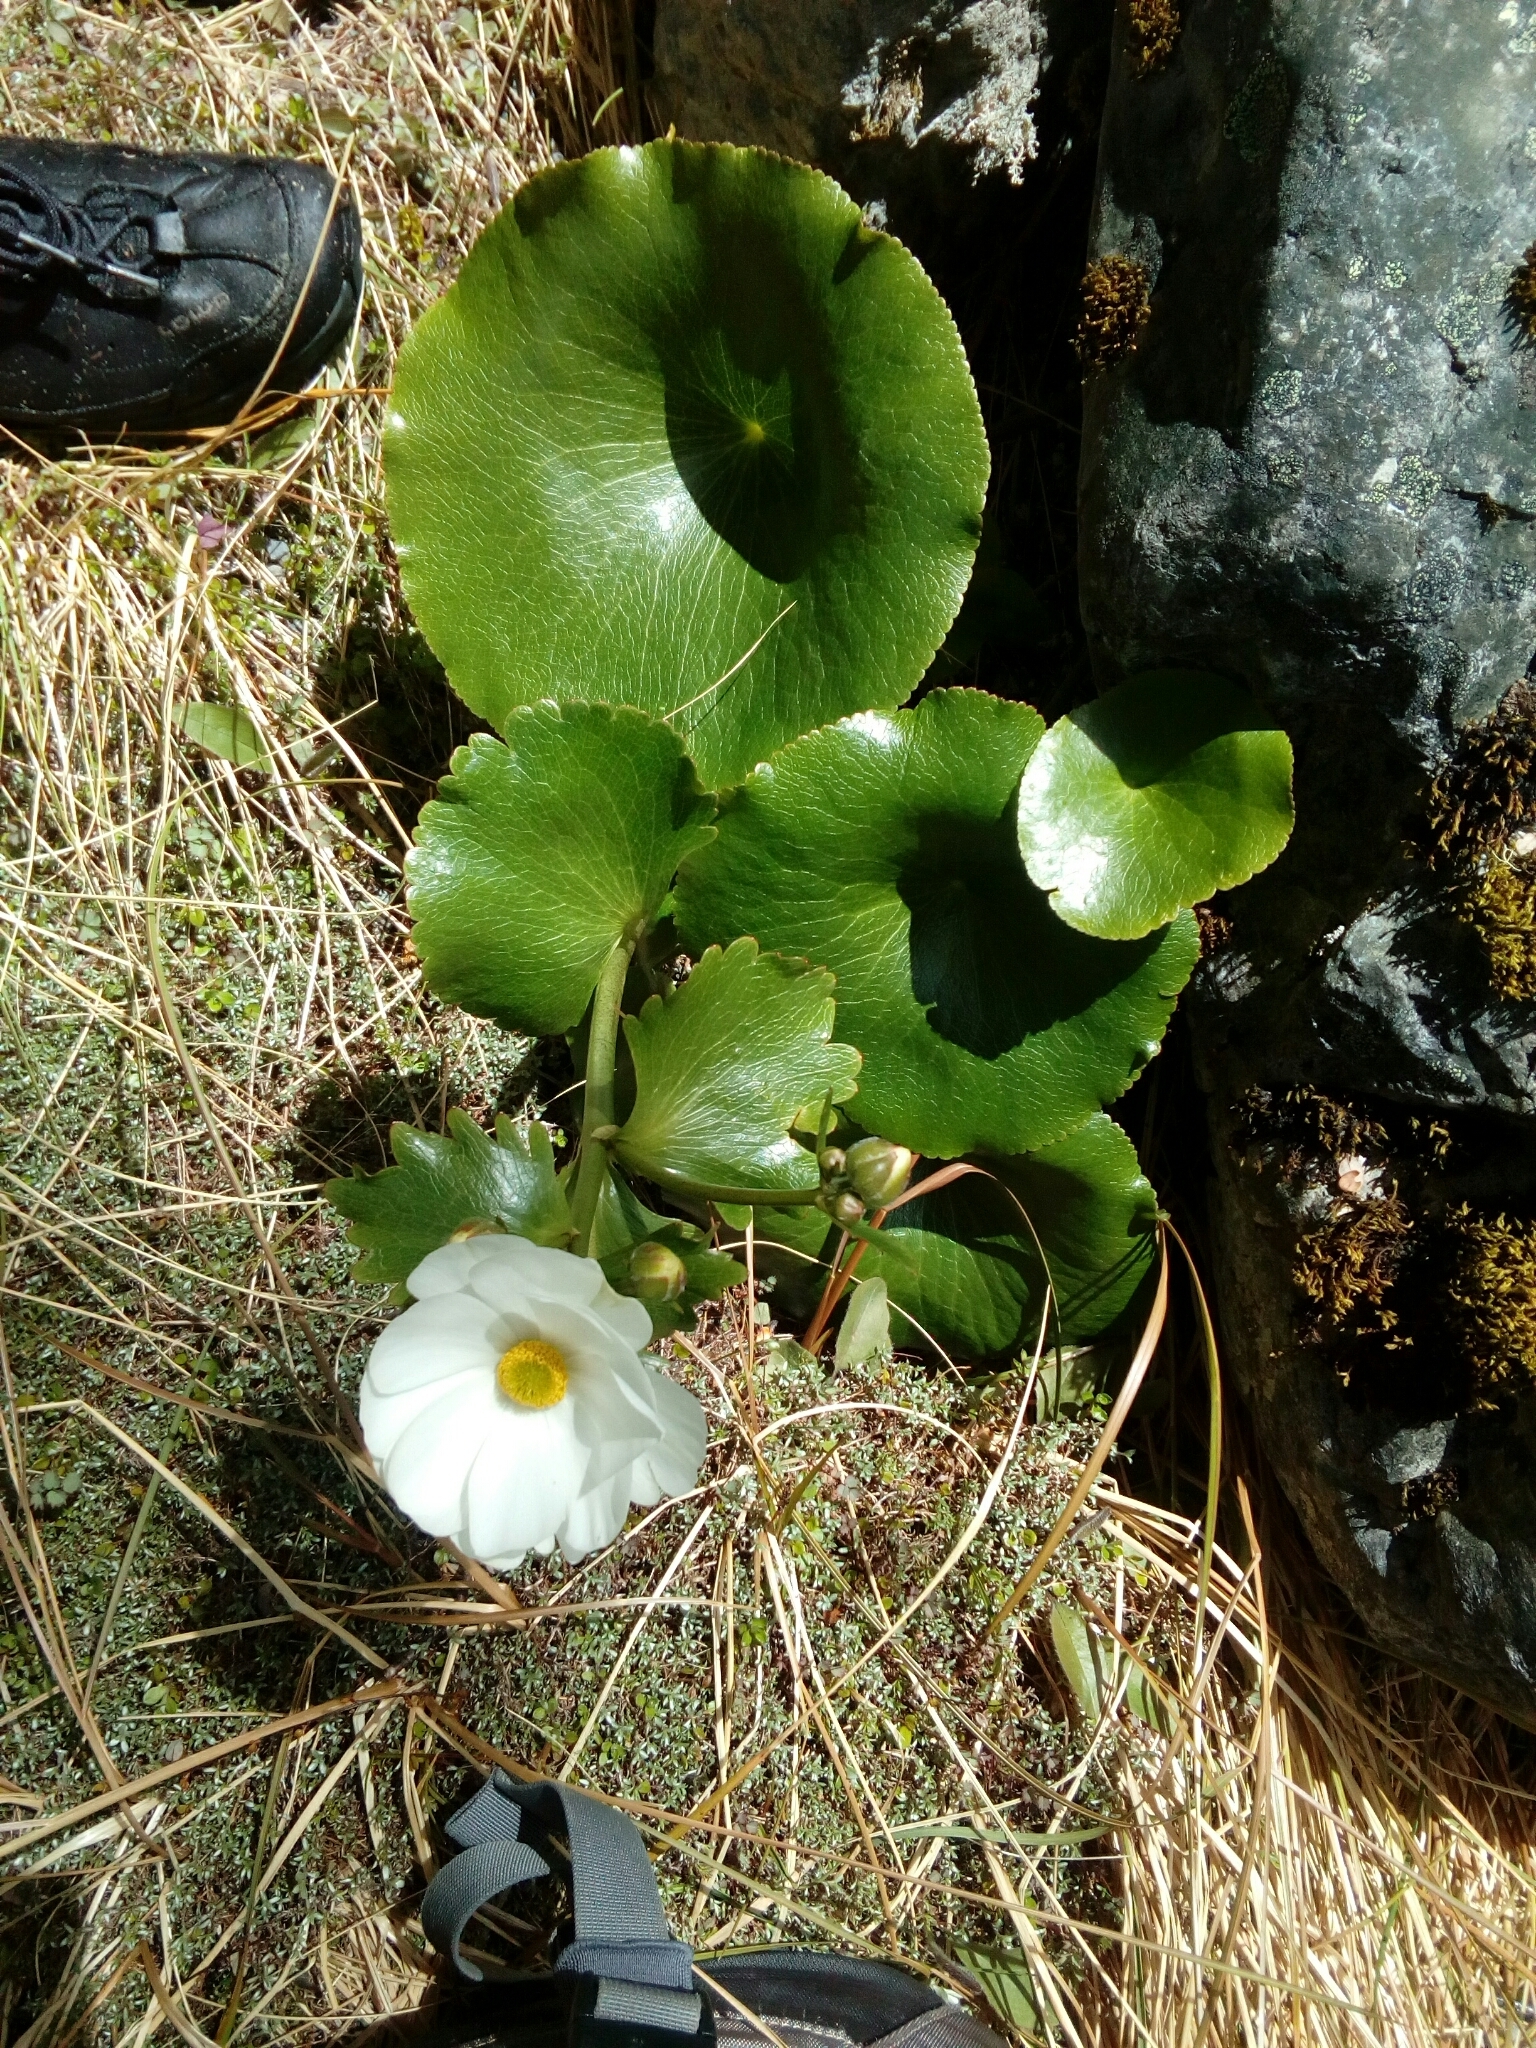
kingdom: Plantae
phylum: Tracheophyta
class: Magnoliopsida
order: Ranunculales
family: Ranunculaceae
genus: Ranunculus
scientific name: Ranunculus lyallii
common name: Mountain-lily
